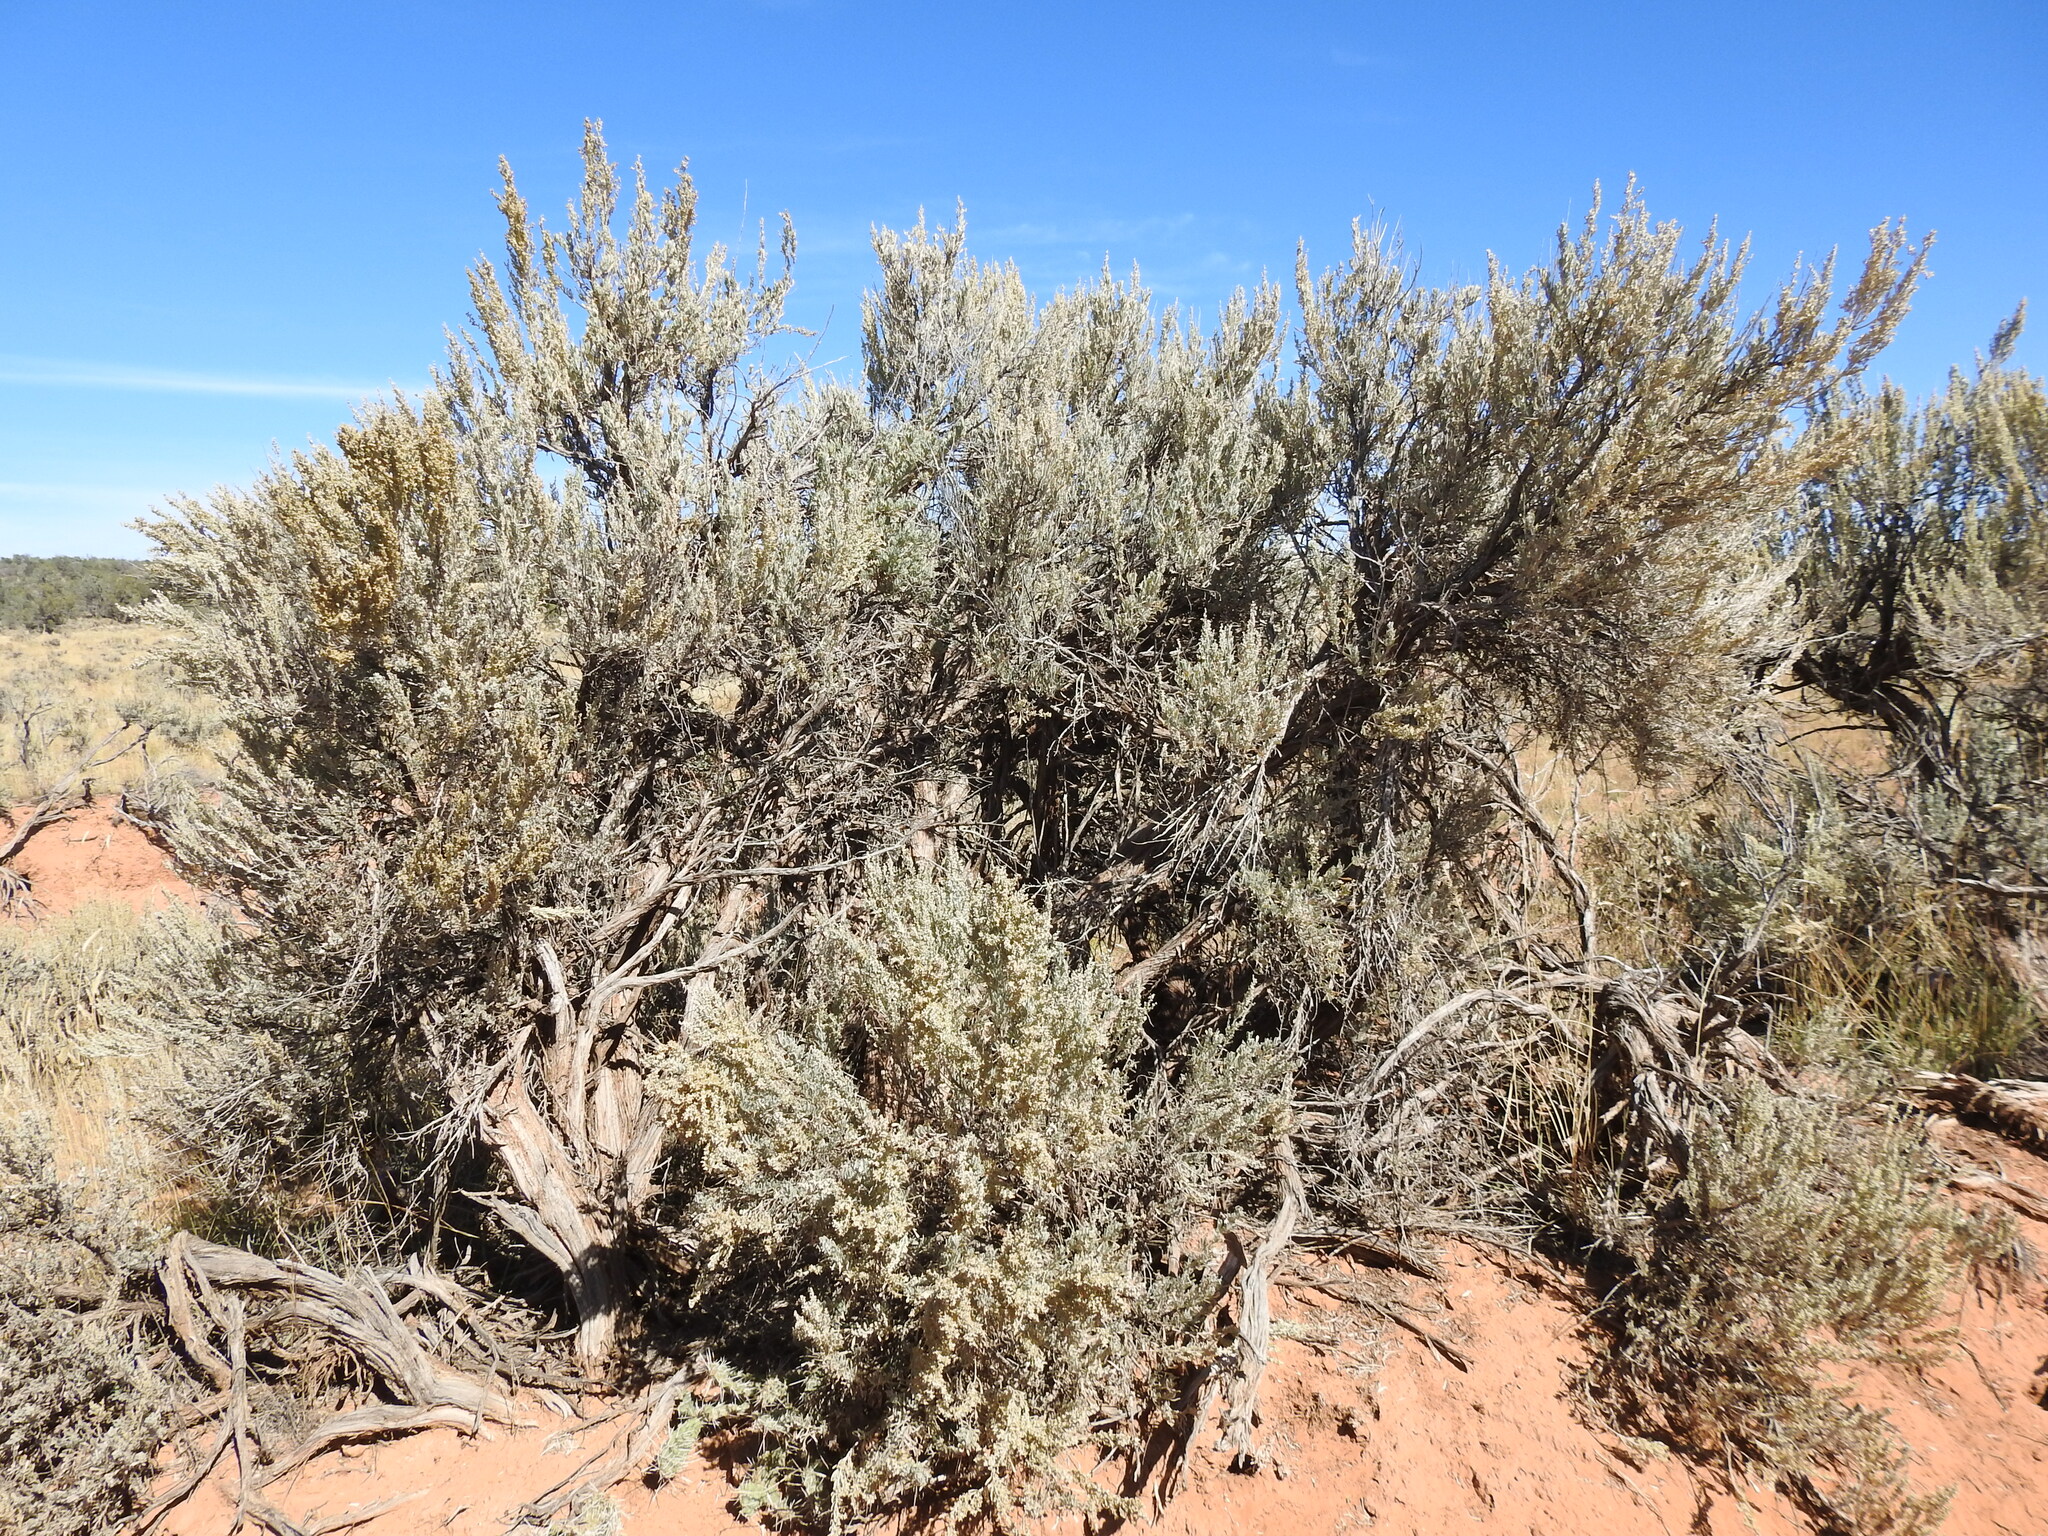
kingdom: Plantae
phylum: Tracheophyta
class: Magnoliopsida
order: Asterales
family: Asteraceae
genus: Artemisia
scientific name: Artemisia tridentata
